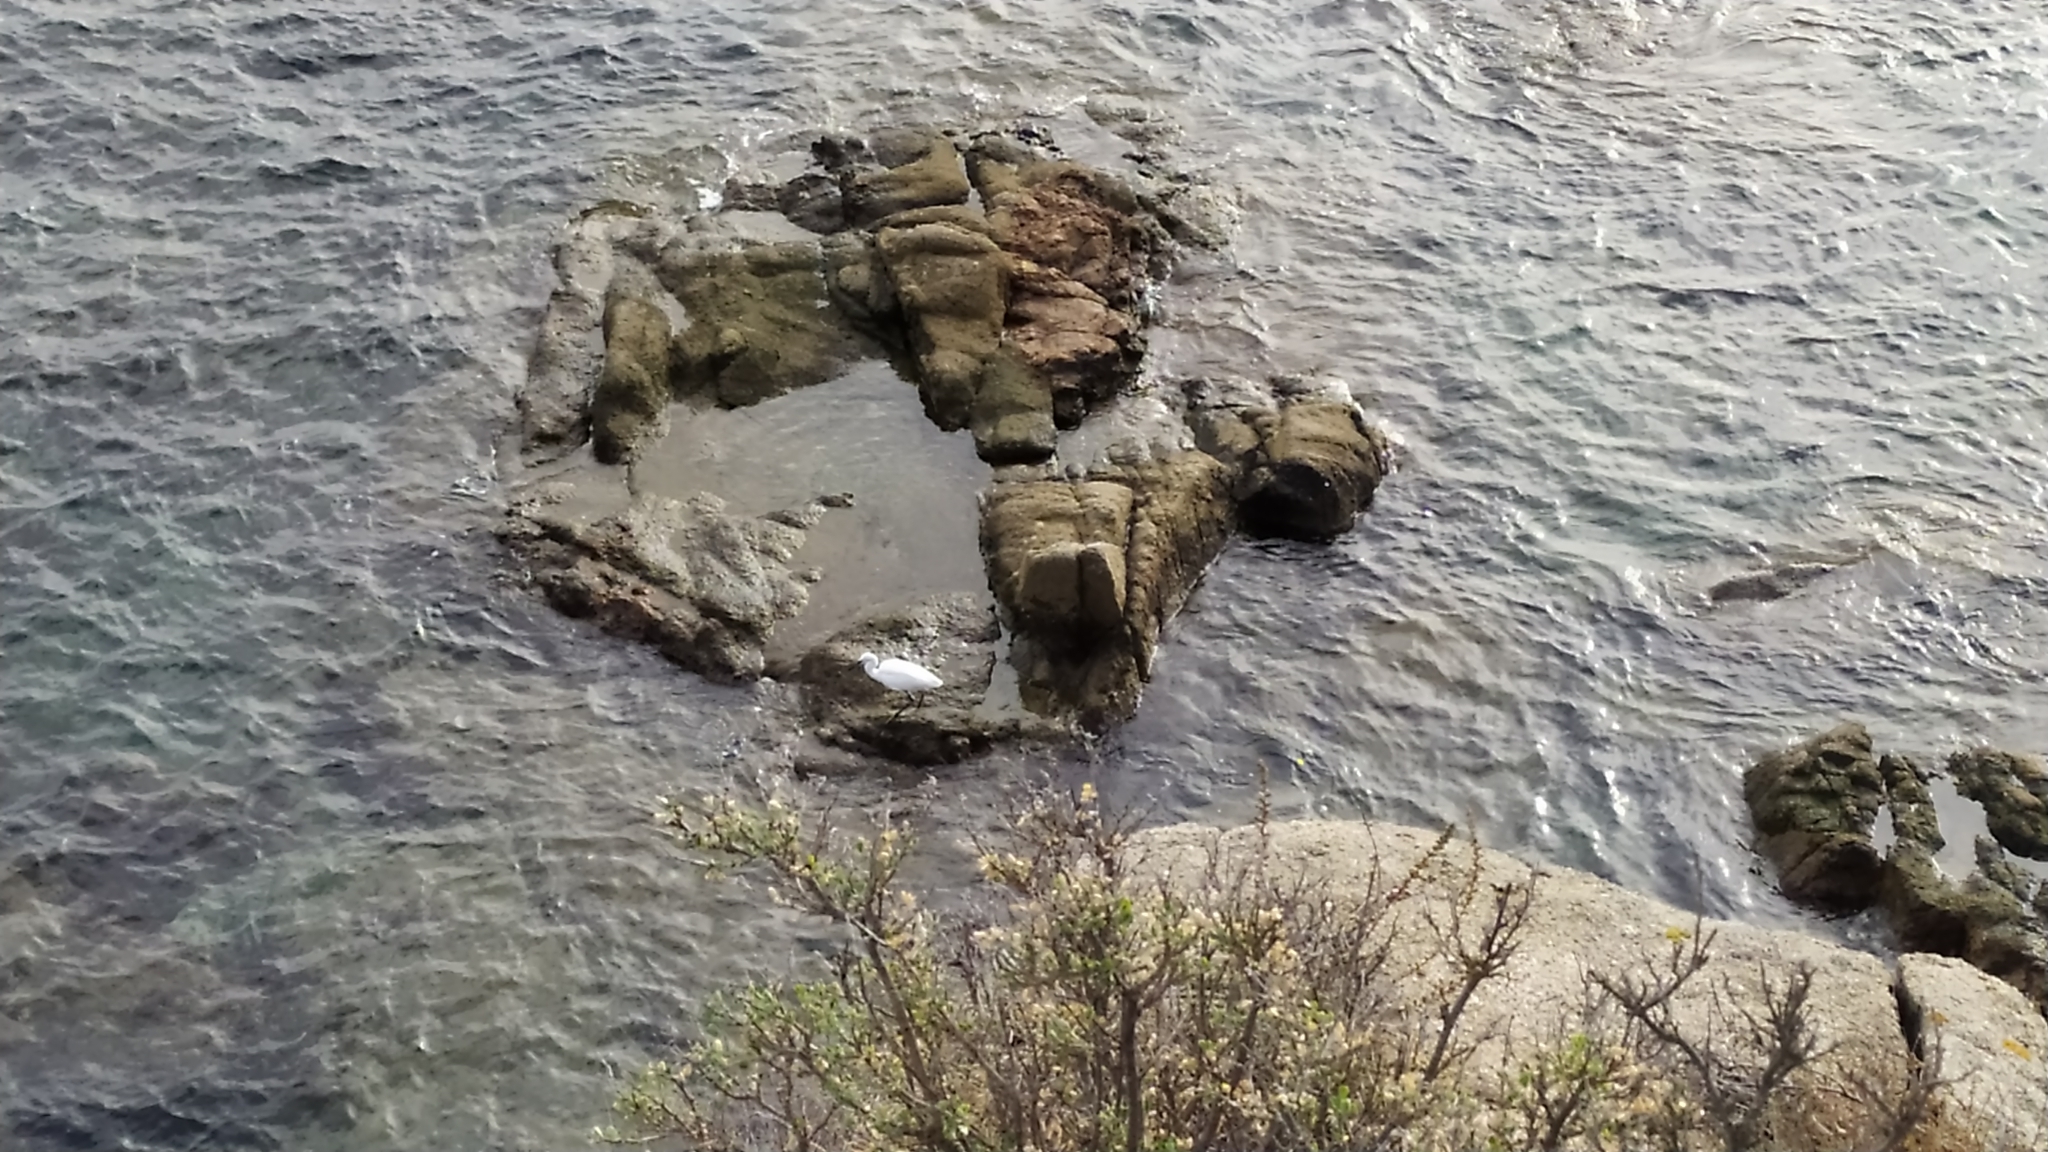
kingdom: Animalia
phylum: Chordata
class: Aves
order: Pelecaniformes
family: Ardeidae
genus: Egretta
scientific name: Egretta garzetta
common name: Little egret
